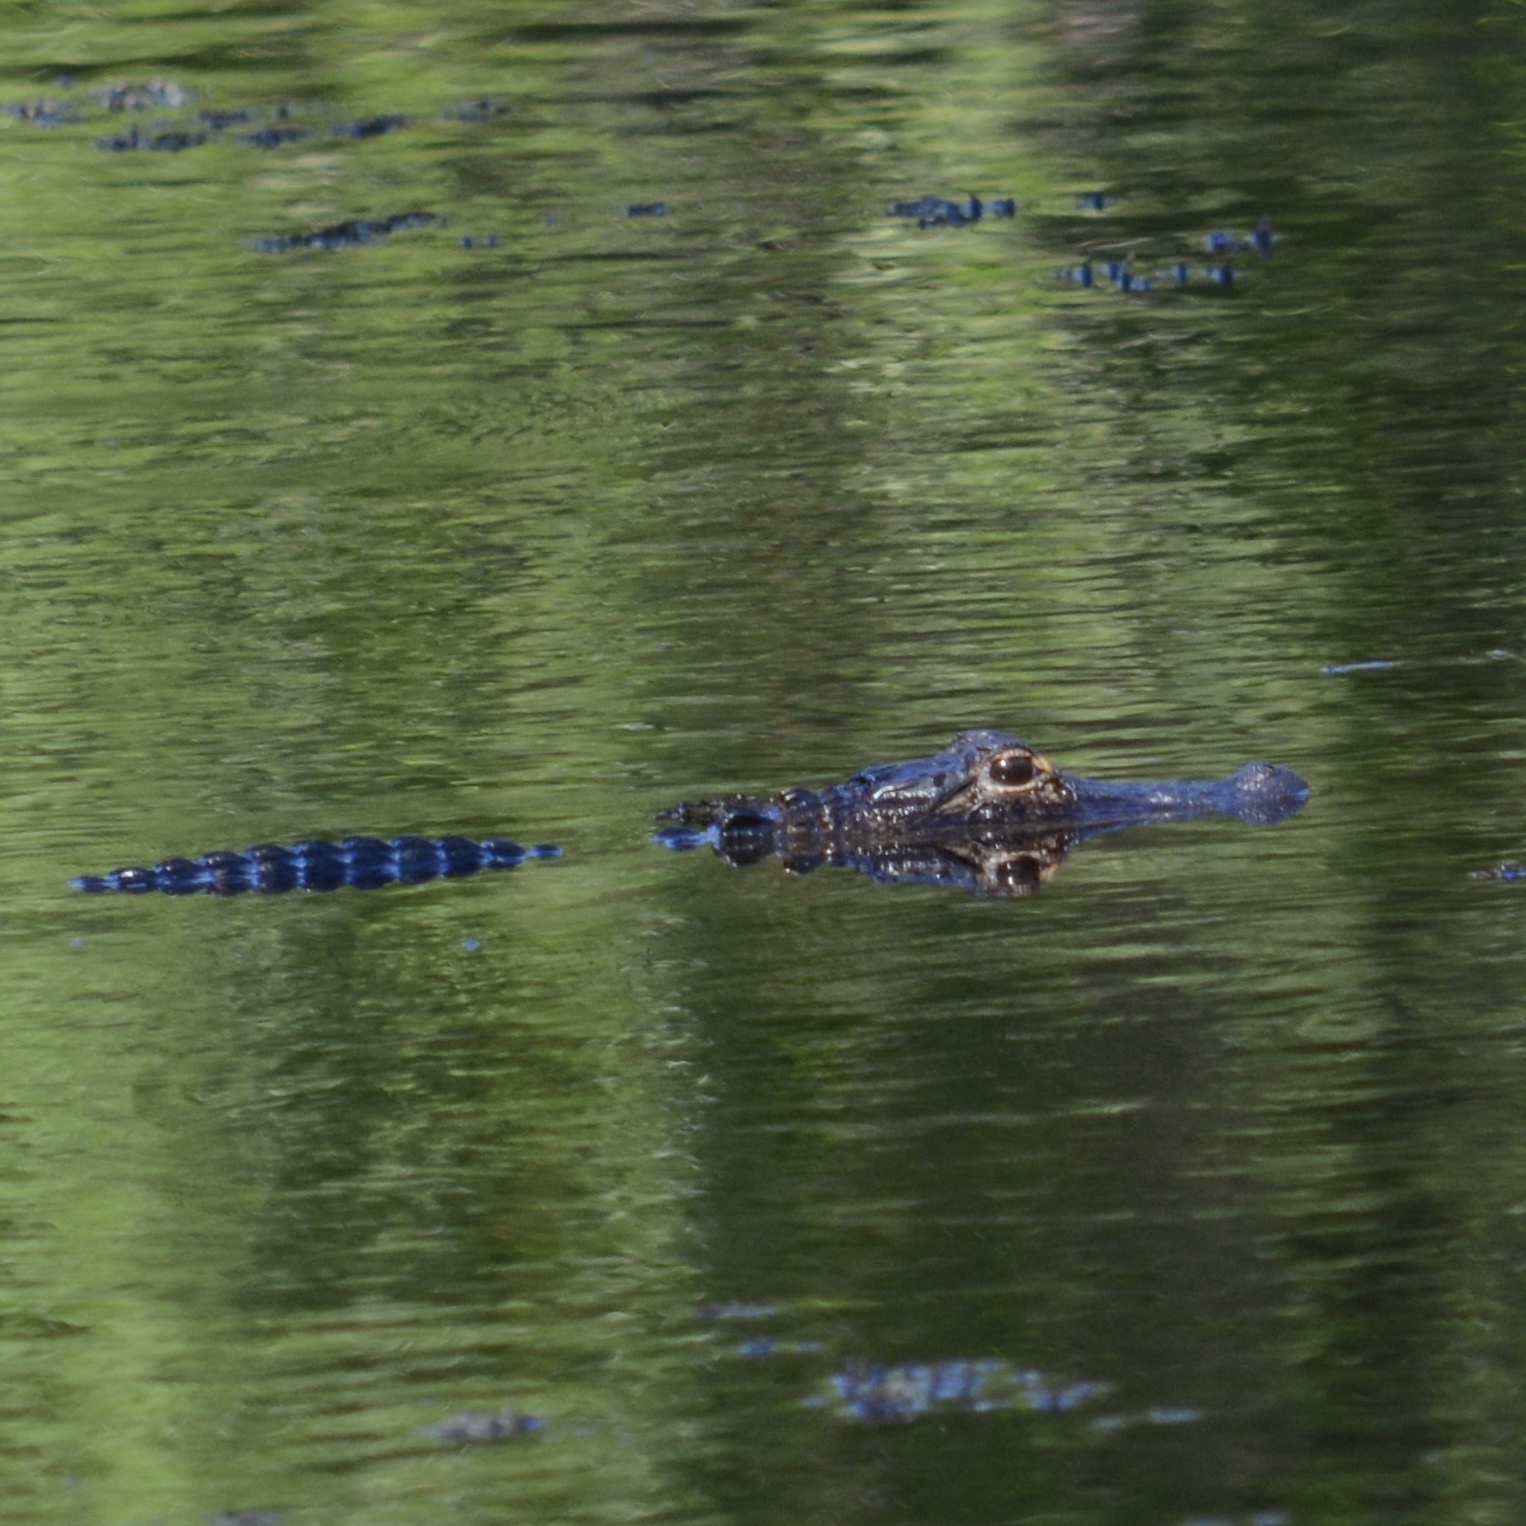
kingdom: Animalia
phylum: Chordata
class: Crocodylia
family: Alligatoridae
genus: Alligator
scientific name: Alligator mississippiensis
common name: American alligator
